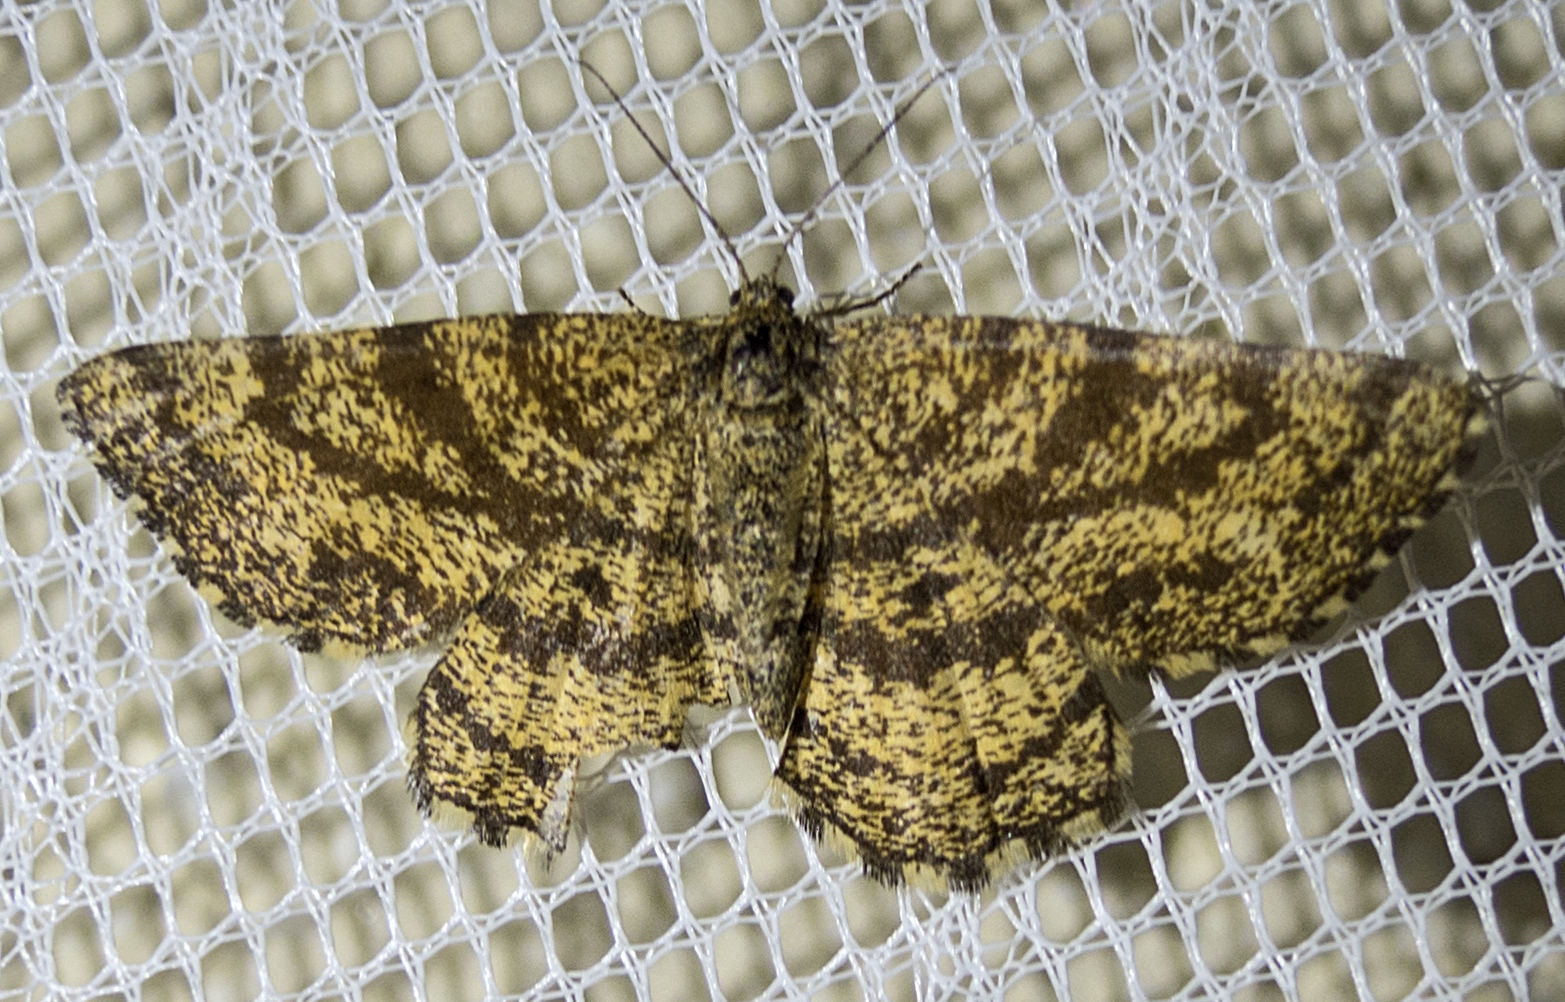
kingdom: Animalia
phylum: Arthropoda
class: Insecta
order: Lepidoptera
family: Geometridae
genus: Ematurga
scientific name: Ematurga atomaria
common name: Common heath
